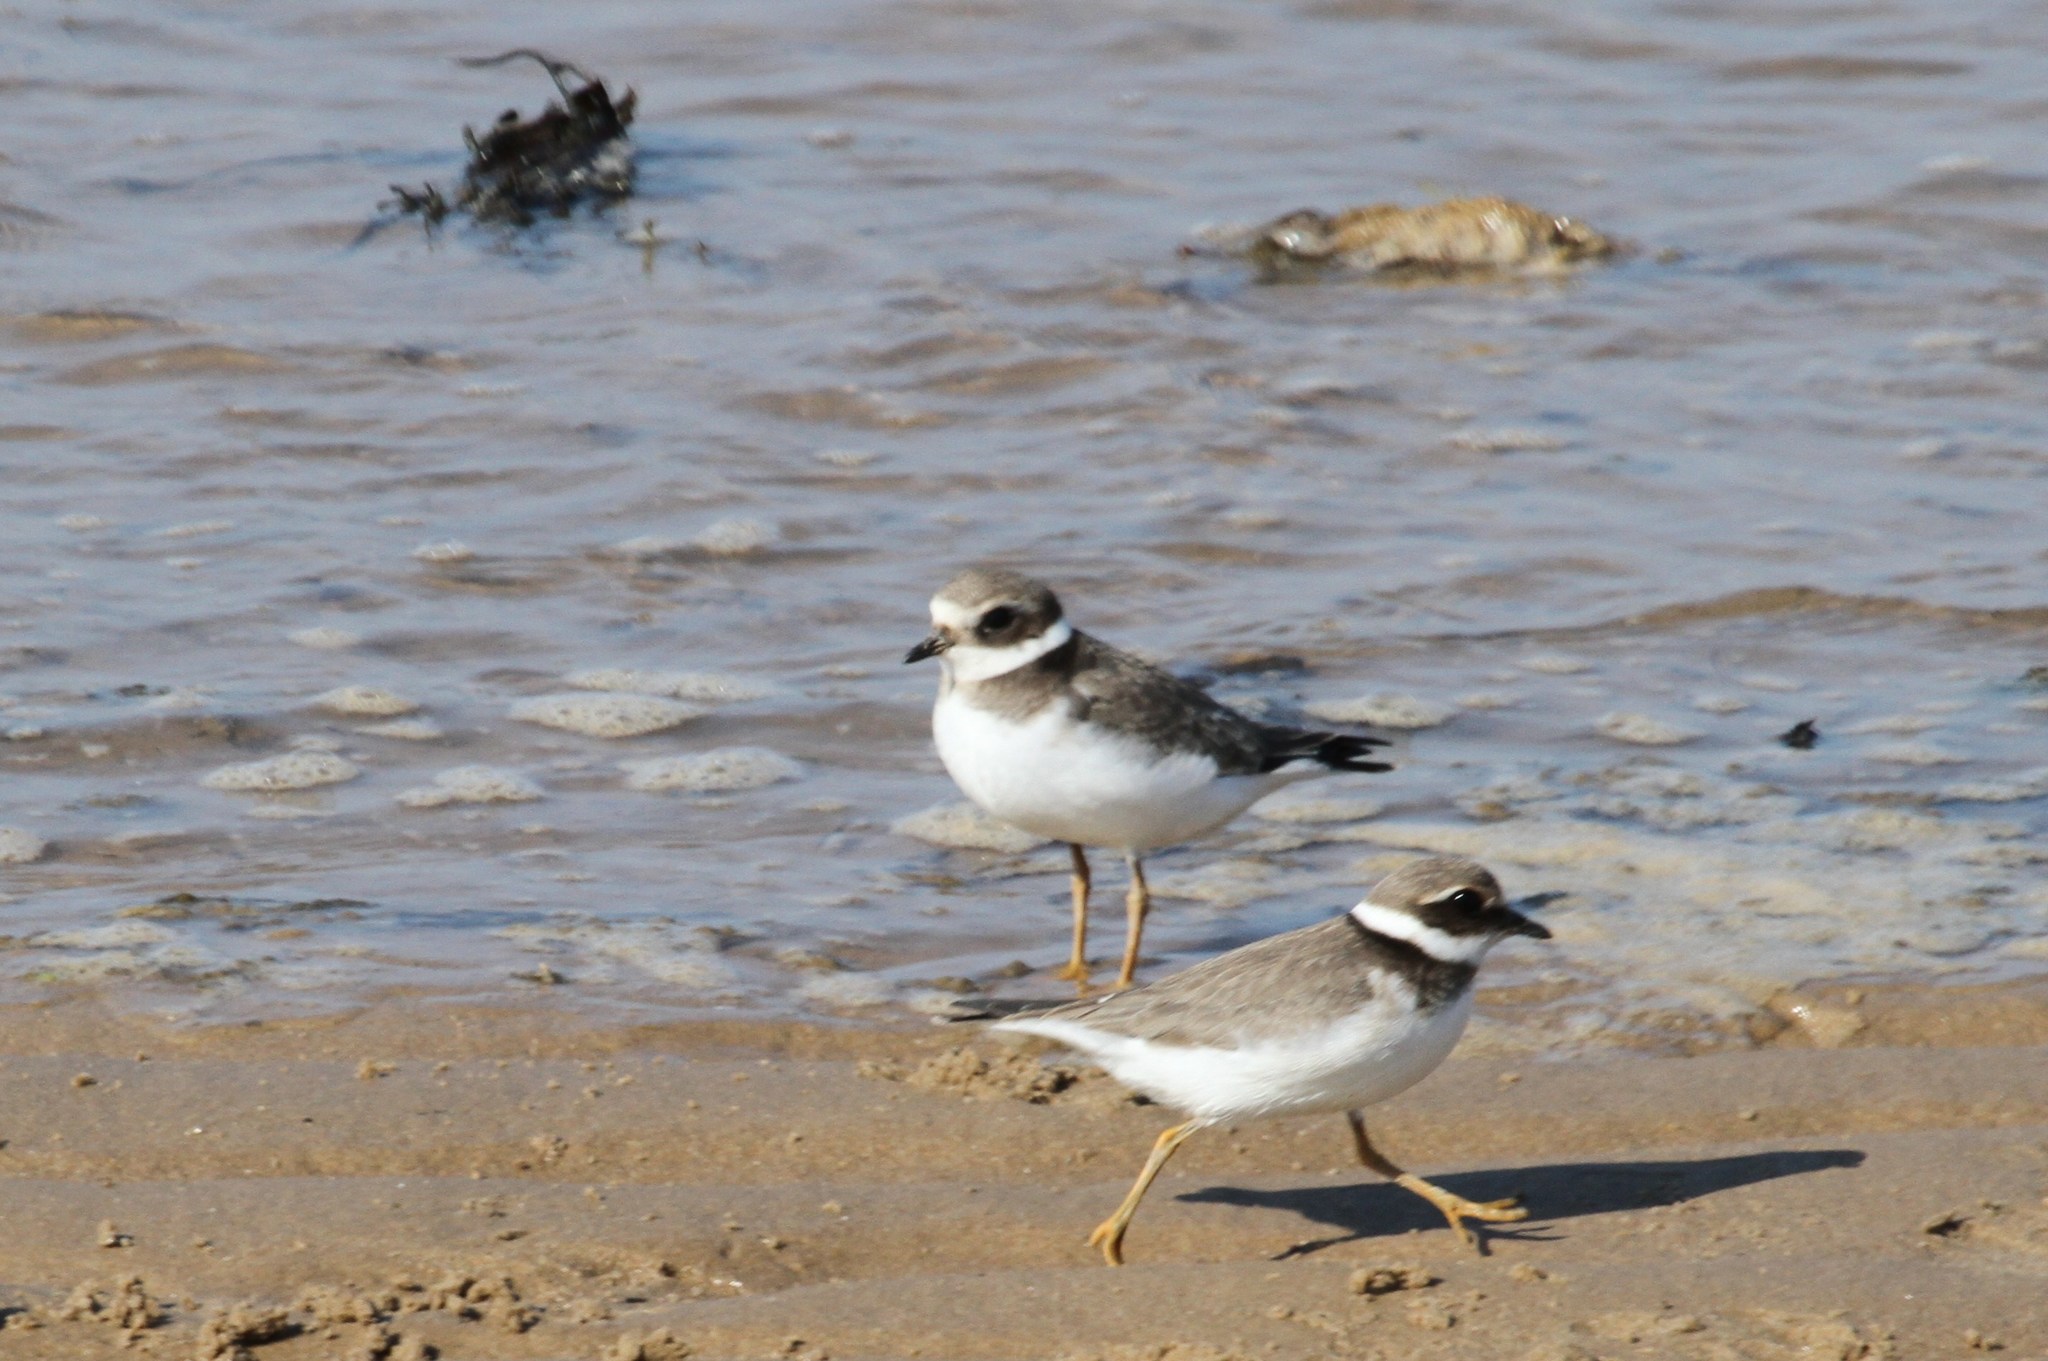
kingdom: Animalia
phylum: Chordata
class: Aves
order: Charadriiformes
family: Charadriidae
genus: Charadrius
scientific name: Charadrius hiaticula
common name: Common ringed plover
